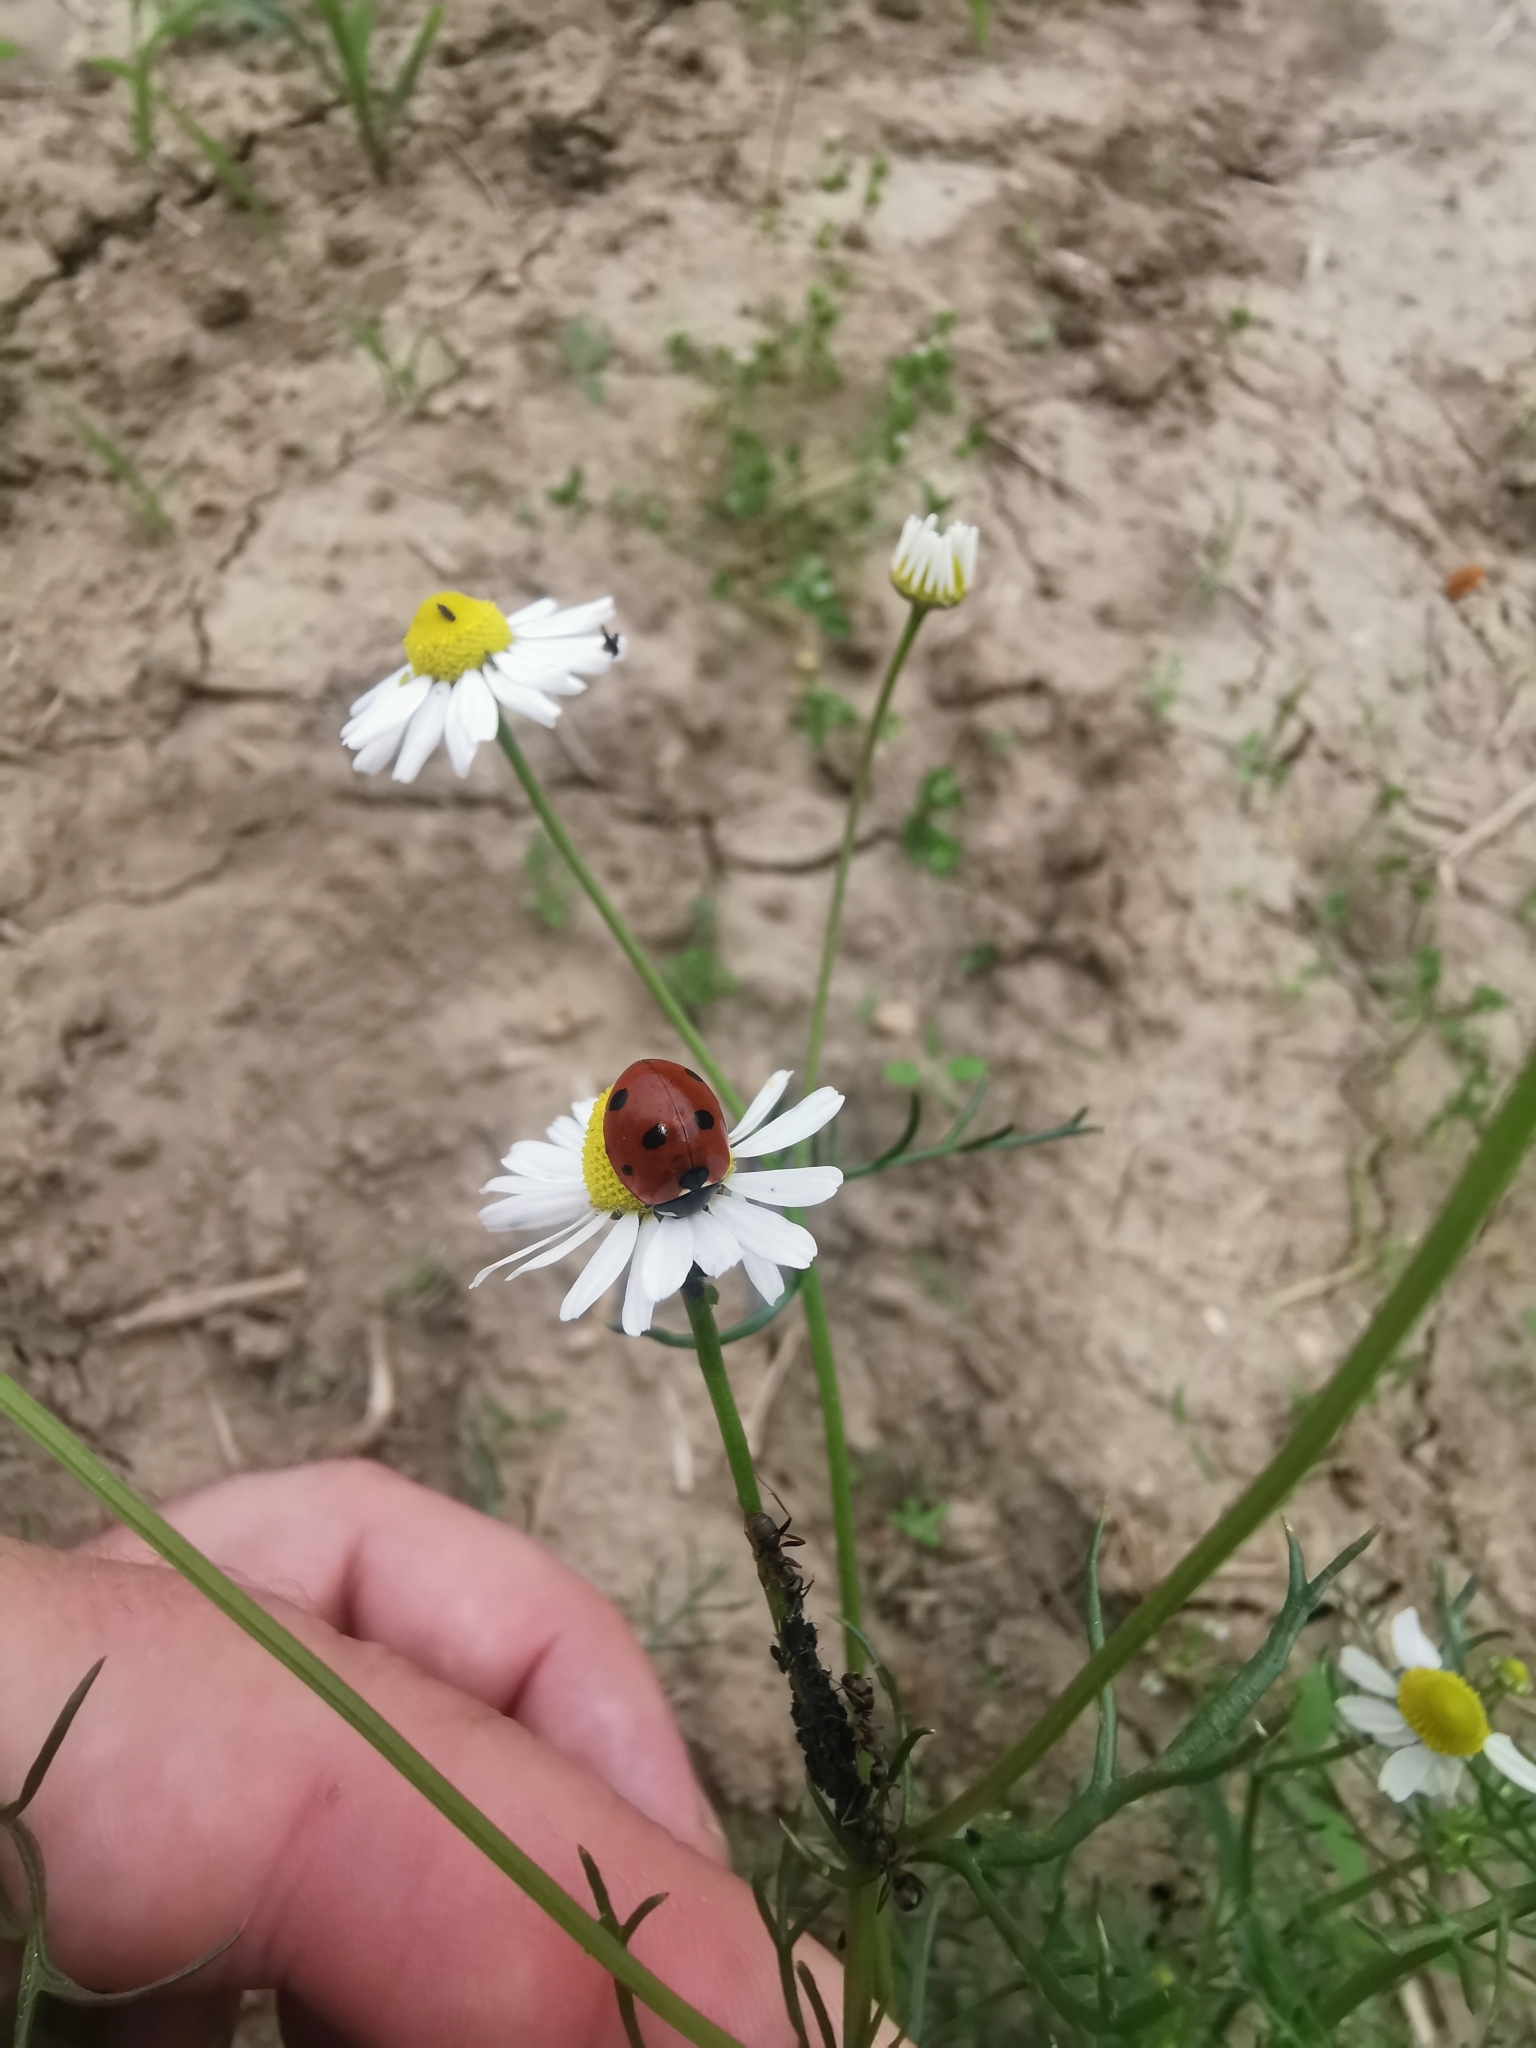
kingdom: Animalia
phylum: Arthropoda
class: Insecta
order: Coleoptera
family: Coccinellidae
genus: Coccinella
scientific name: Coccinella septempunctata
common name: Sevenspotted lady beetle
